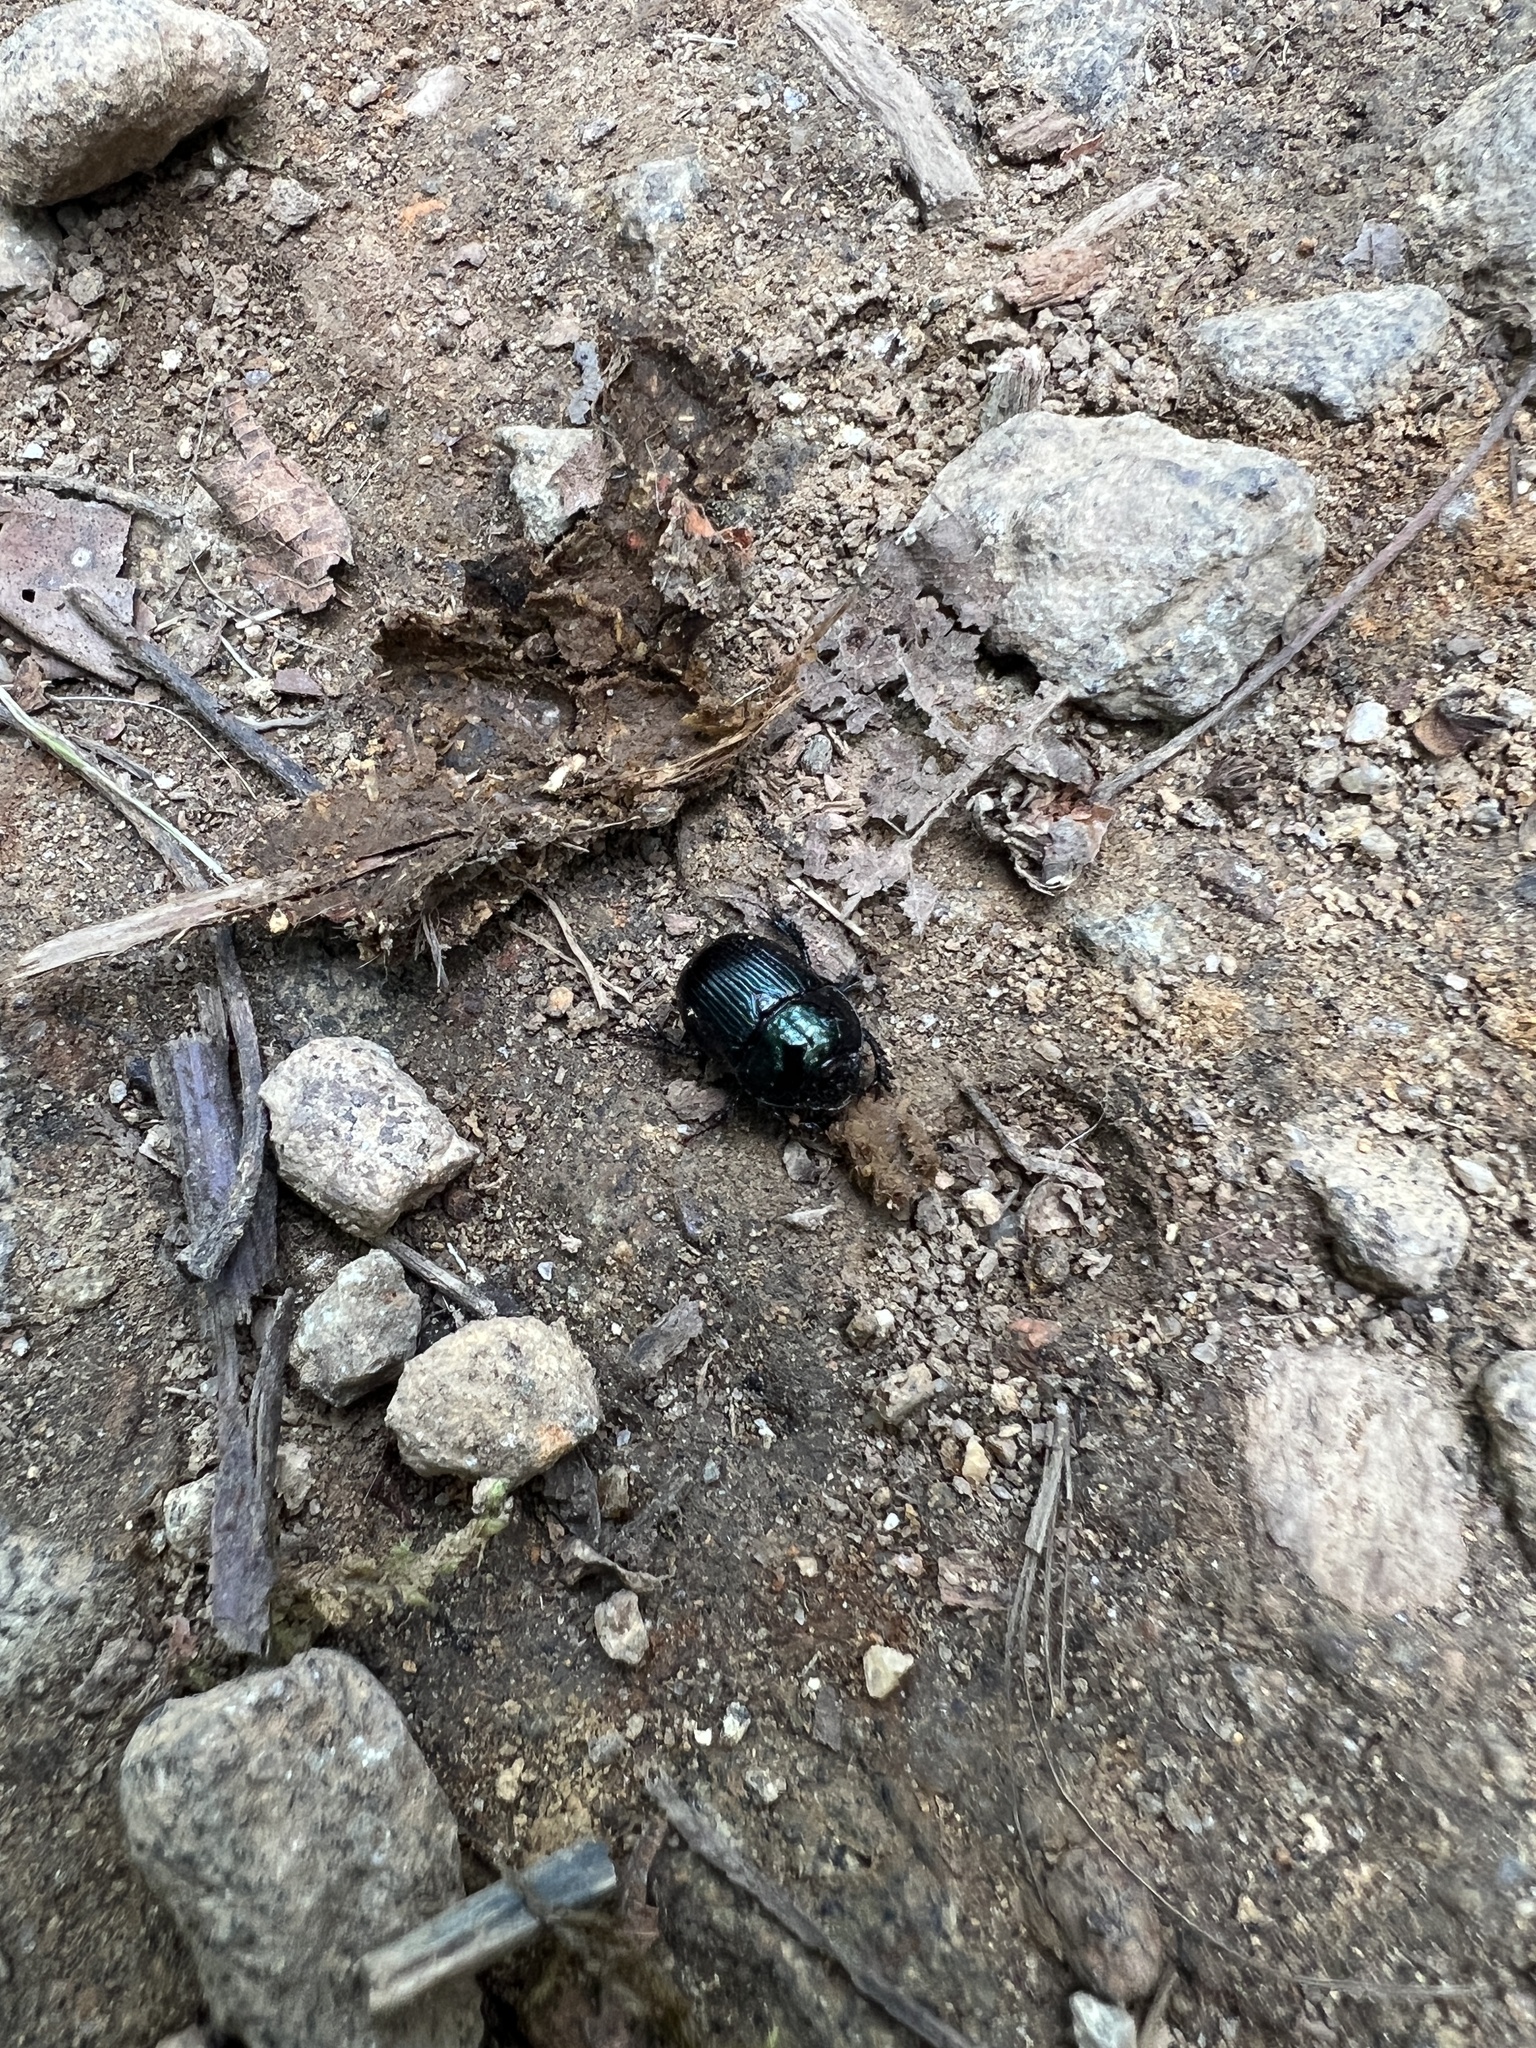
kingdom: Animalia
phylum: Arthropoda
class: Insecta
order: Coleoptera
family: Geotrupidae
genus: Anoplotrupes
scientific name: Anoplotrupes balyi
